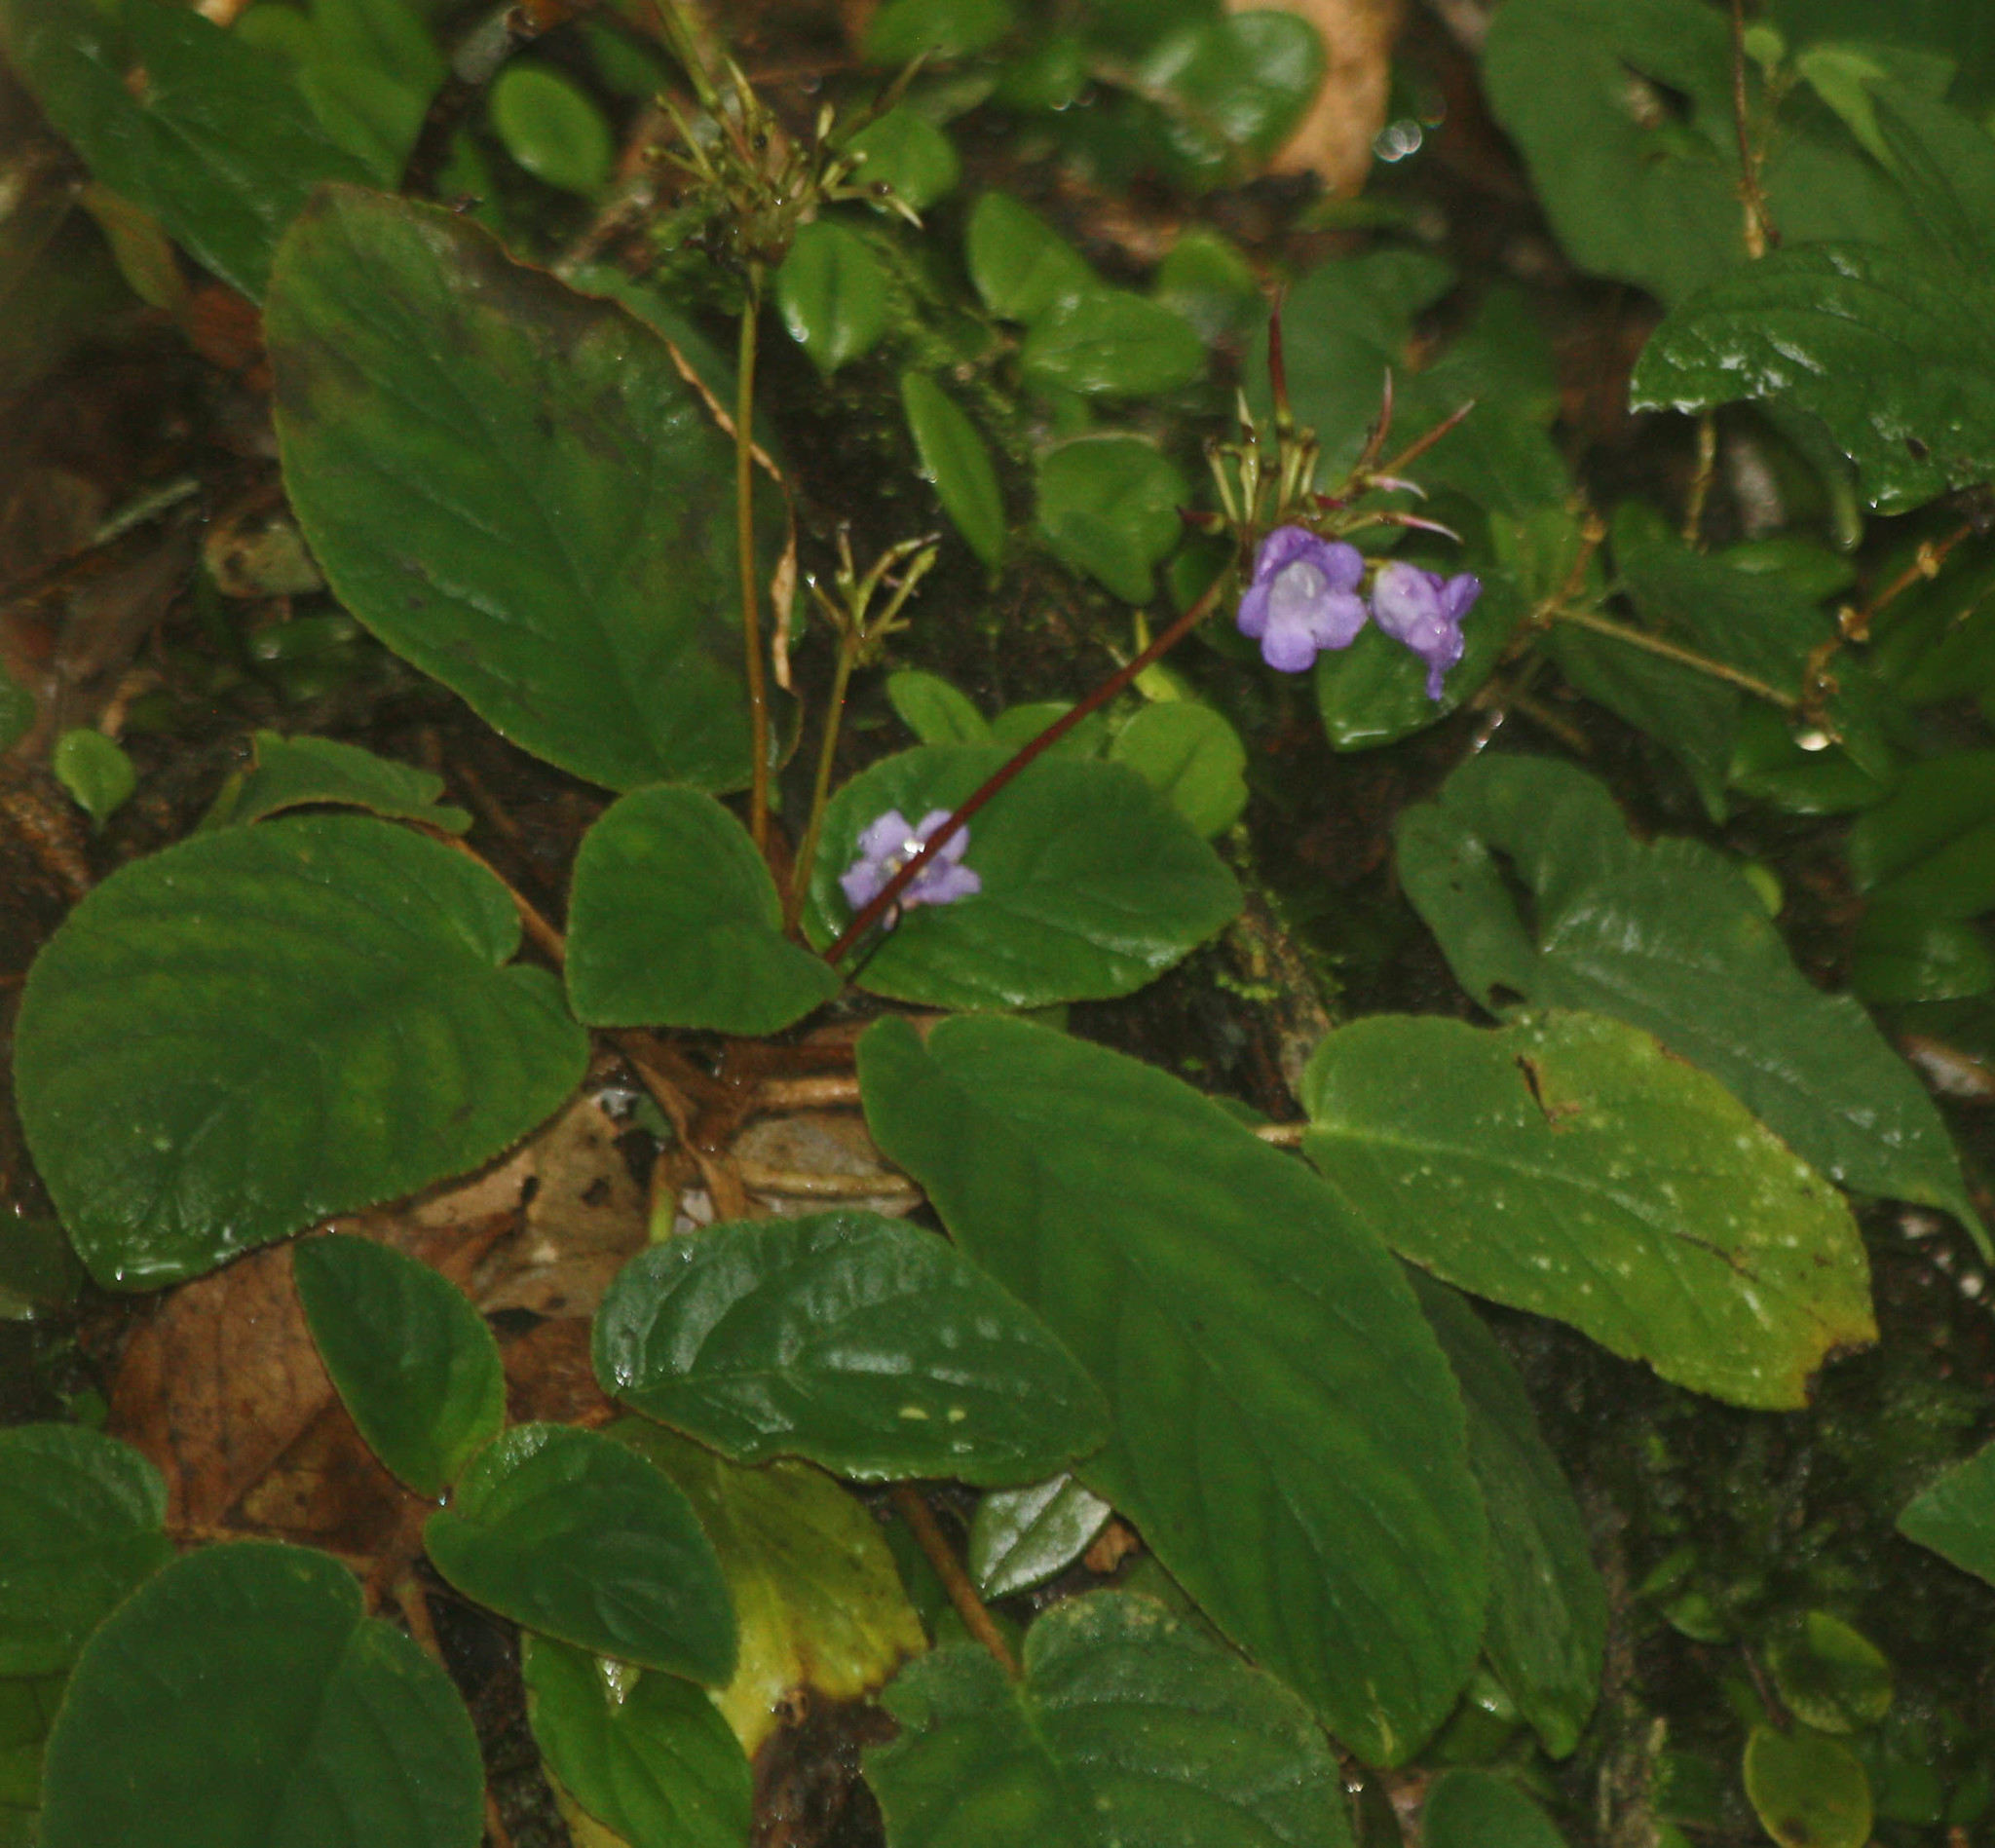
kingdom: Plantae
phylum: Tracheophyta
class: Magnoliopsida
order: Lamiales
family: Gesneriaceae
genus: Paraboea
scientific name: Paraboea rufescens
